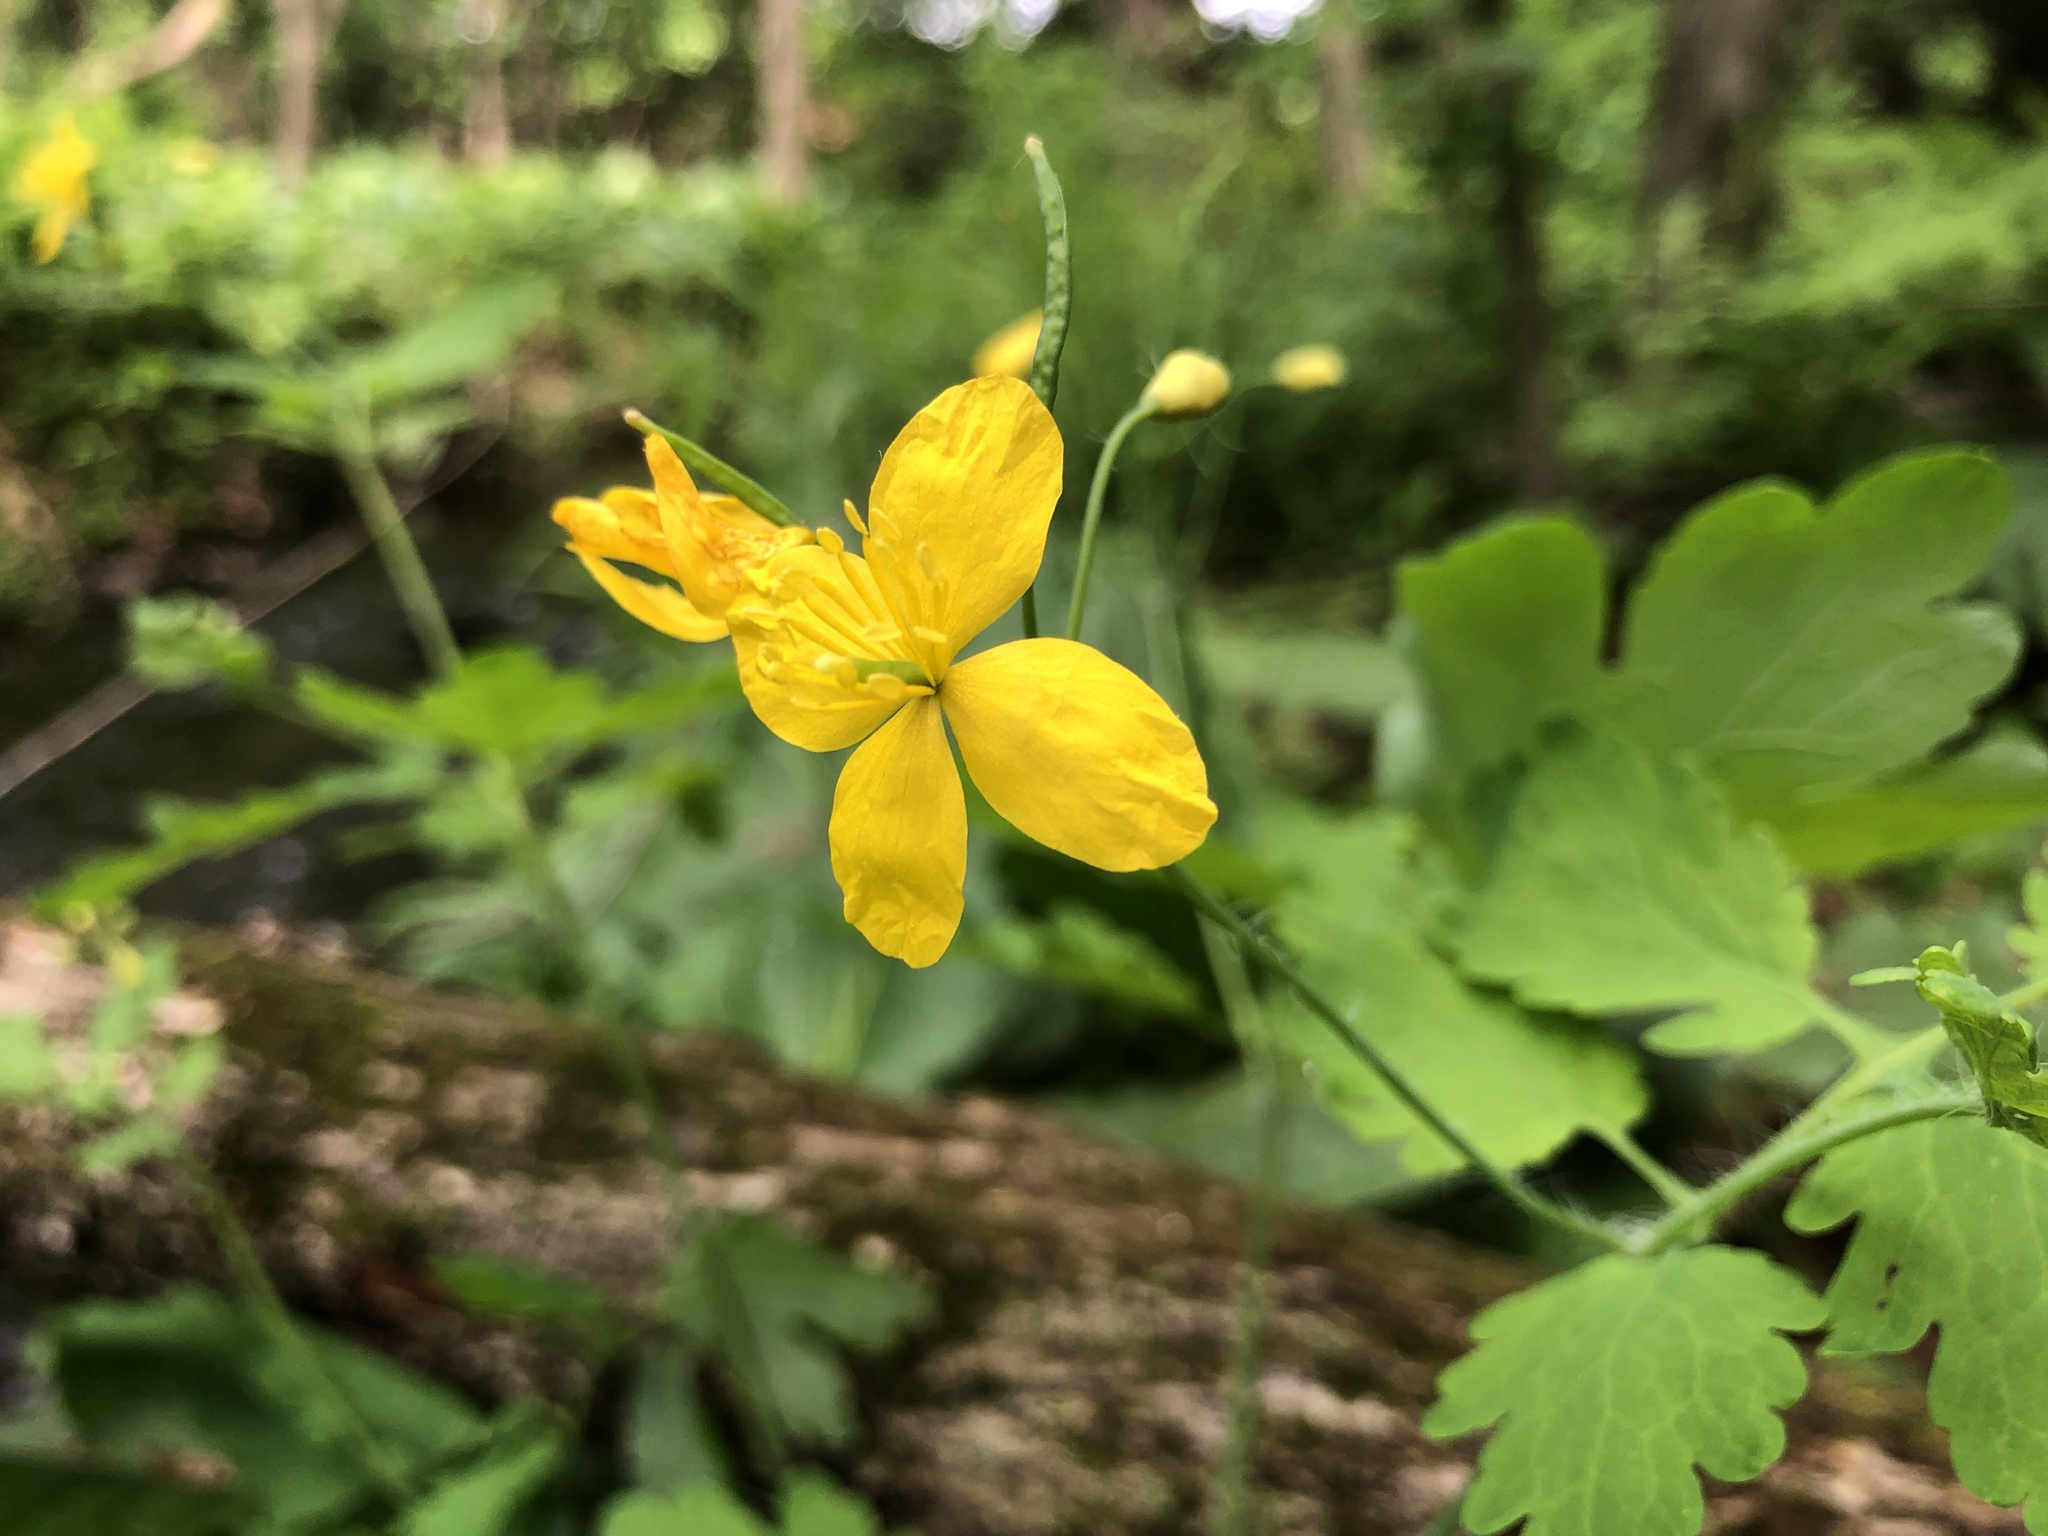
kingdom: Plantae
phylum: Tracheophyta
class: Magnoliopsida
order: Ranunculales
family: Papaveraceae
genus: Chelidonium
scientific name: Chelidonium majus
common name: Greater celandine
